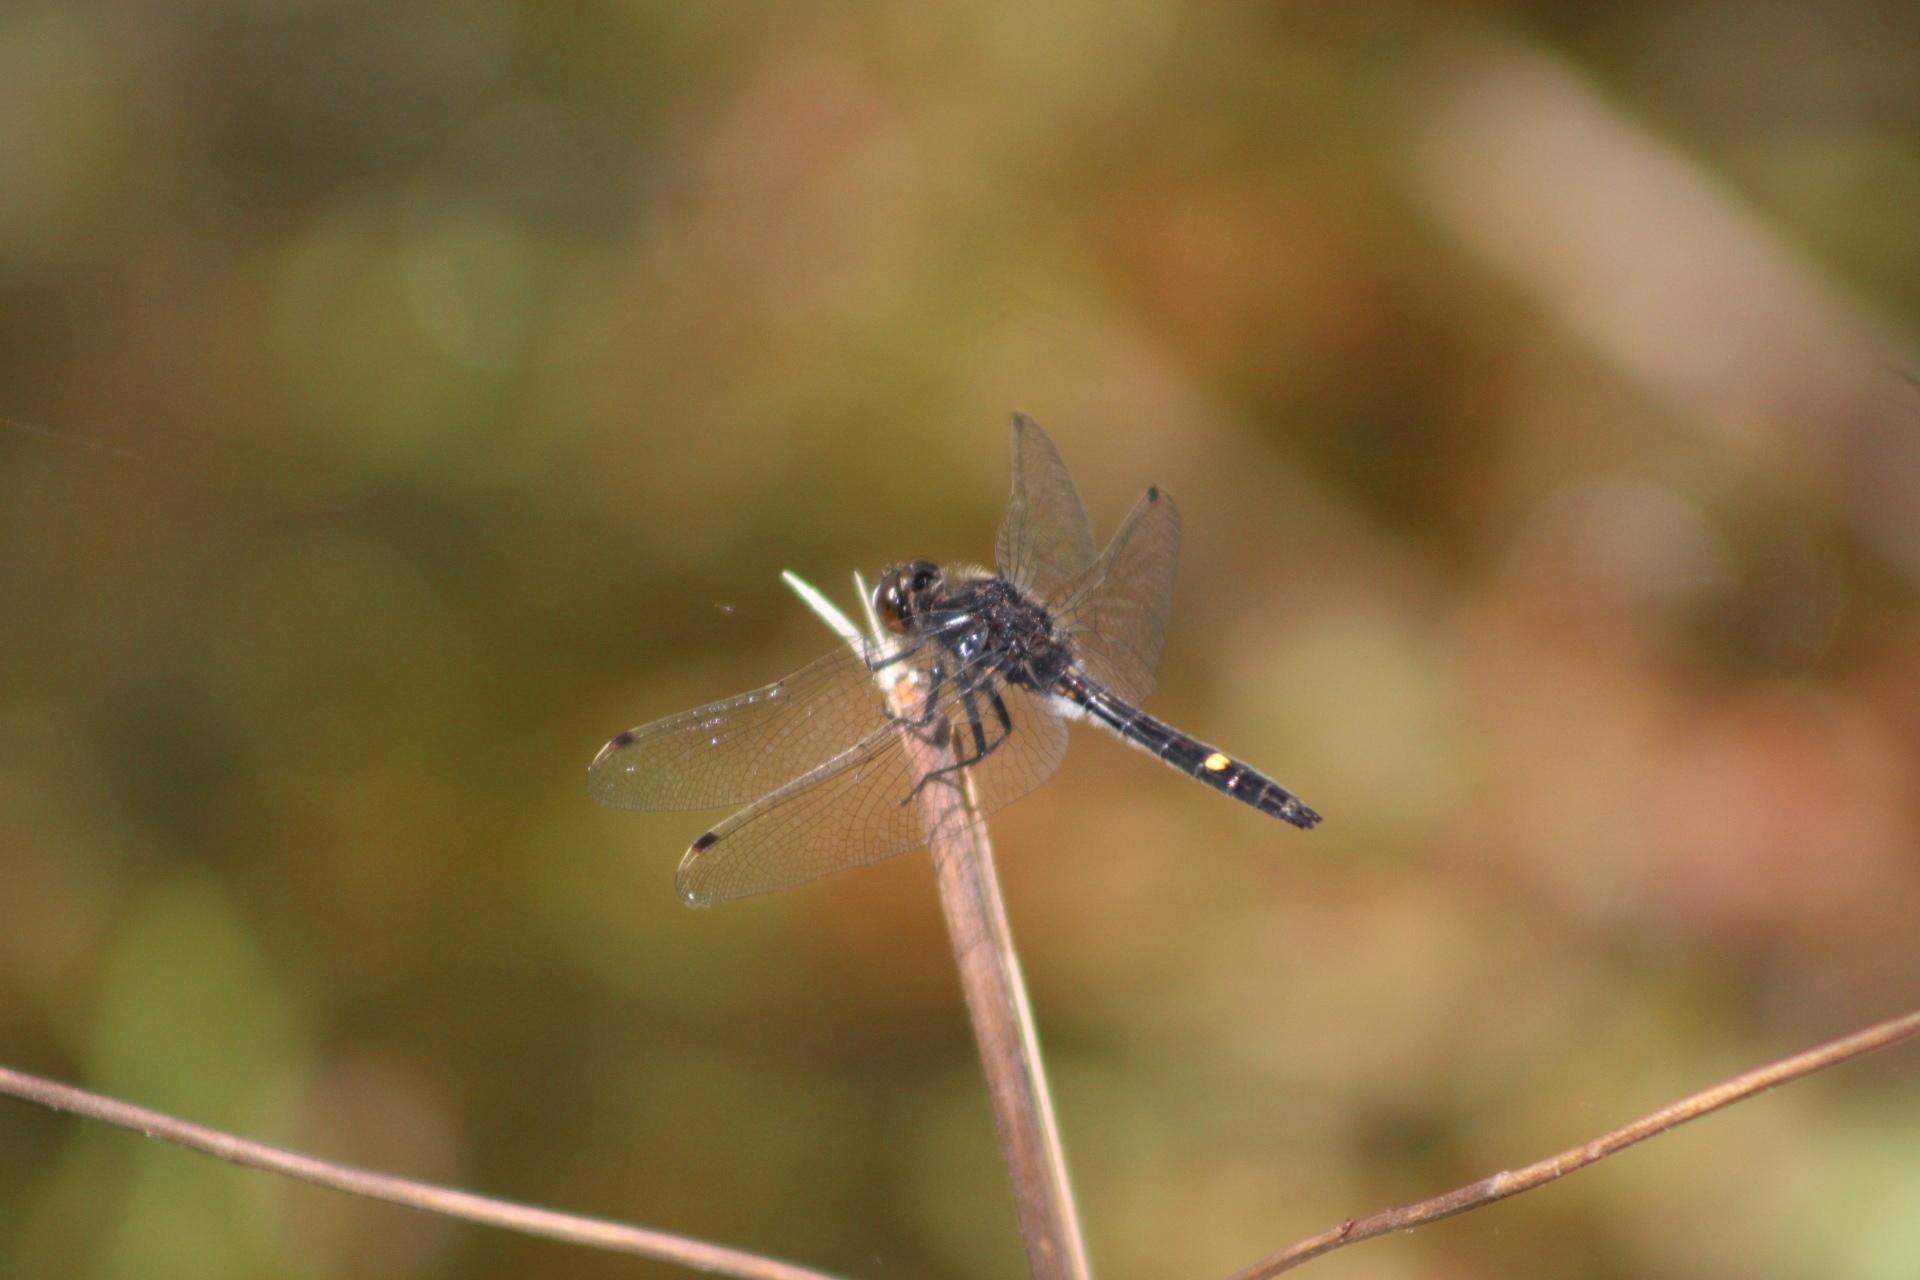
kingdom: Animalia
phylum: Arthropoda
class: Insecta
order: Odonata
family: Libellulidae
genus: Leucorrhinia
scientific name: Leucorrhinia intacta
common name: Dot-tailed whiteface
